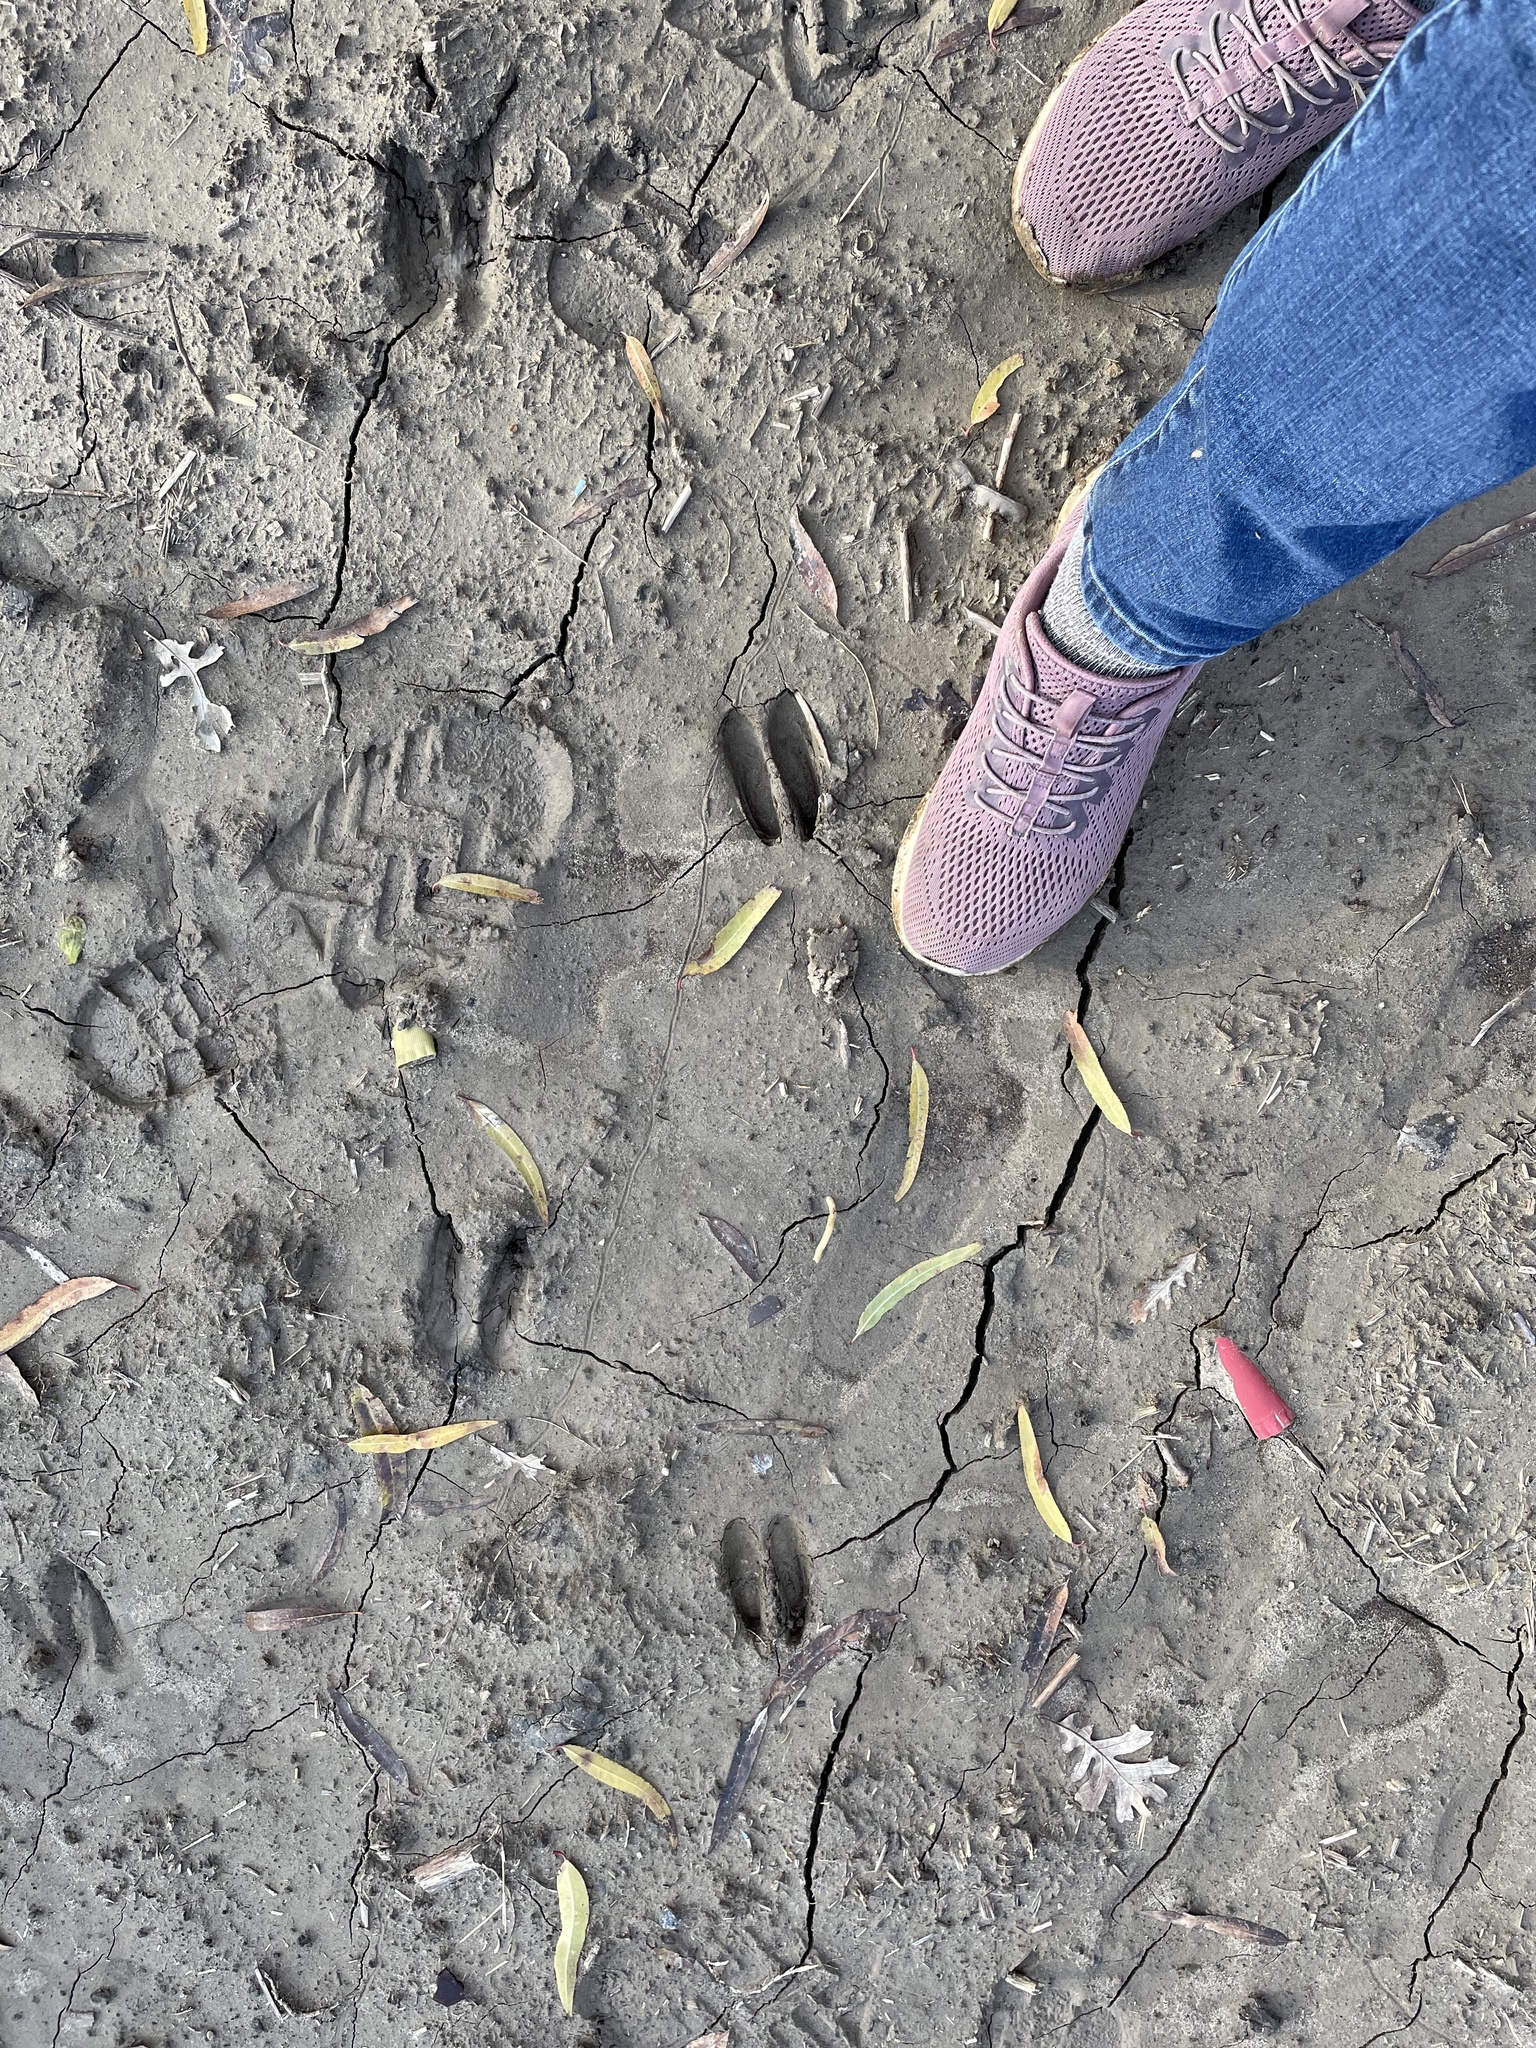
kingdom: Animalia
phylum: Chordata
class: Mammalia
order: Artiodactyla
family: Cervidae
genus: Odocoileus
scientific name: Odocoileus hemionus
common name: Mule deer
